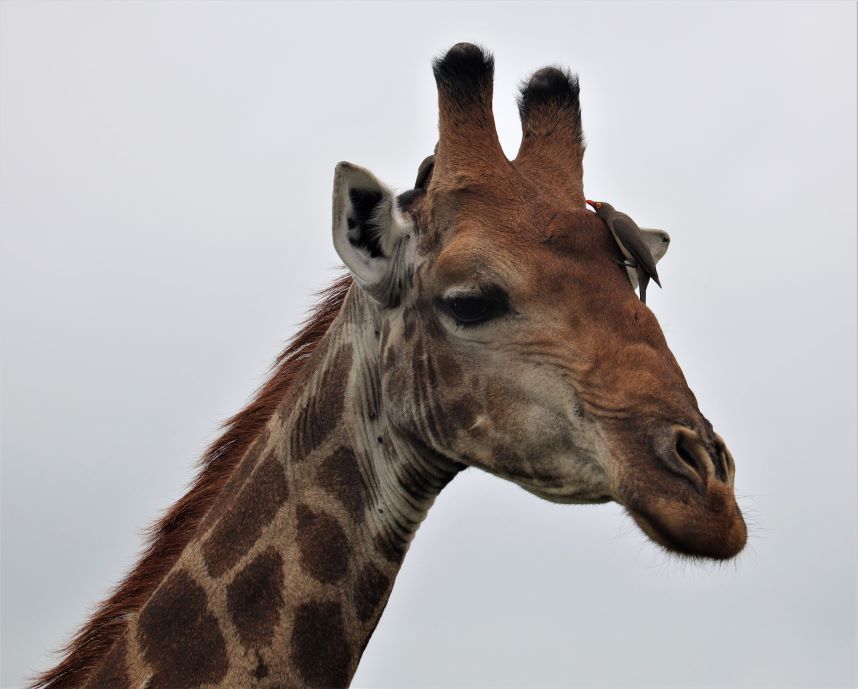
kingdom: Animalia
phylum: Chordata
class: Mammalia
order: Artiodactyla
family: Giraffidae
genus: Giraffa
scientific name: Giraffa giraffa
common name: Southern giraffe
